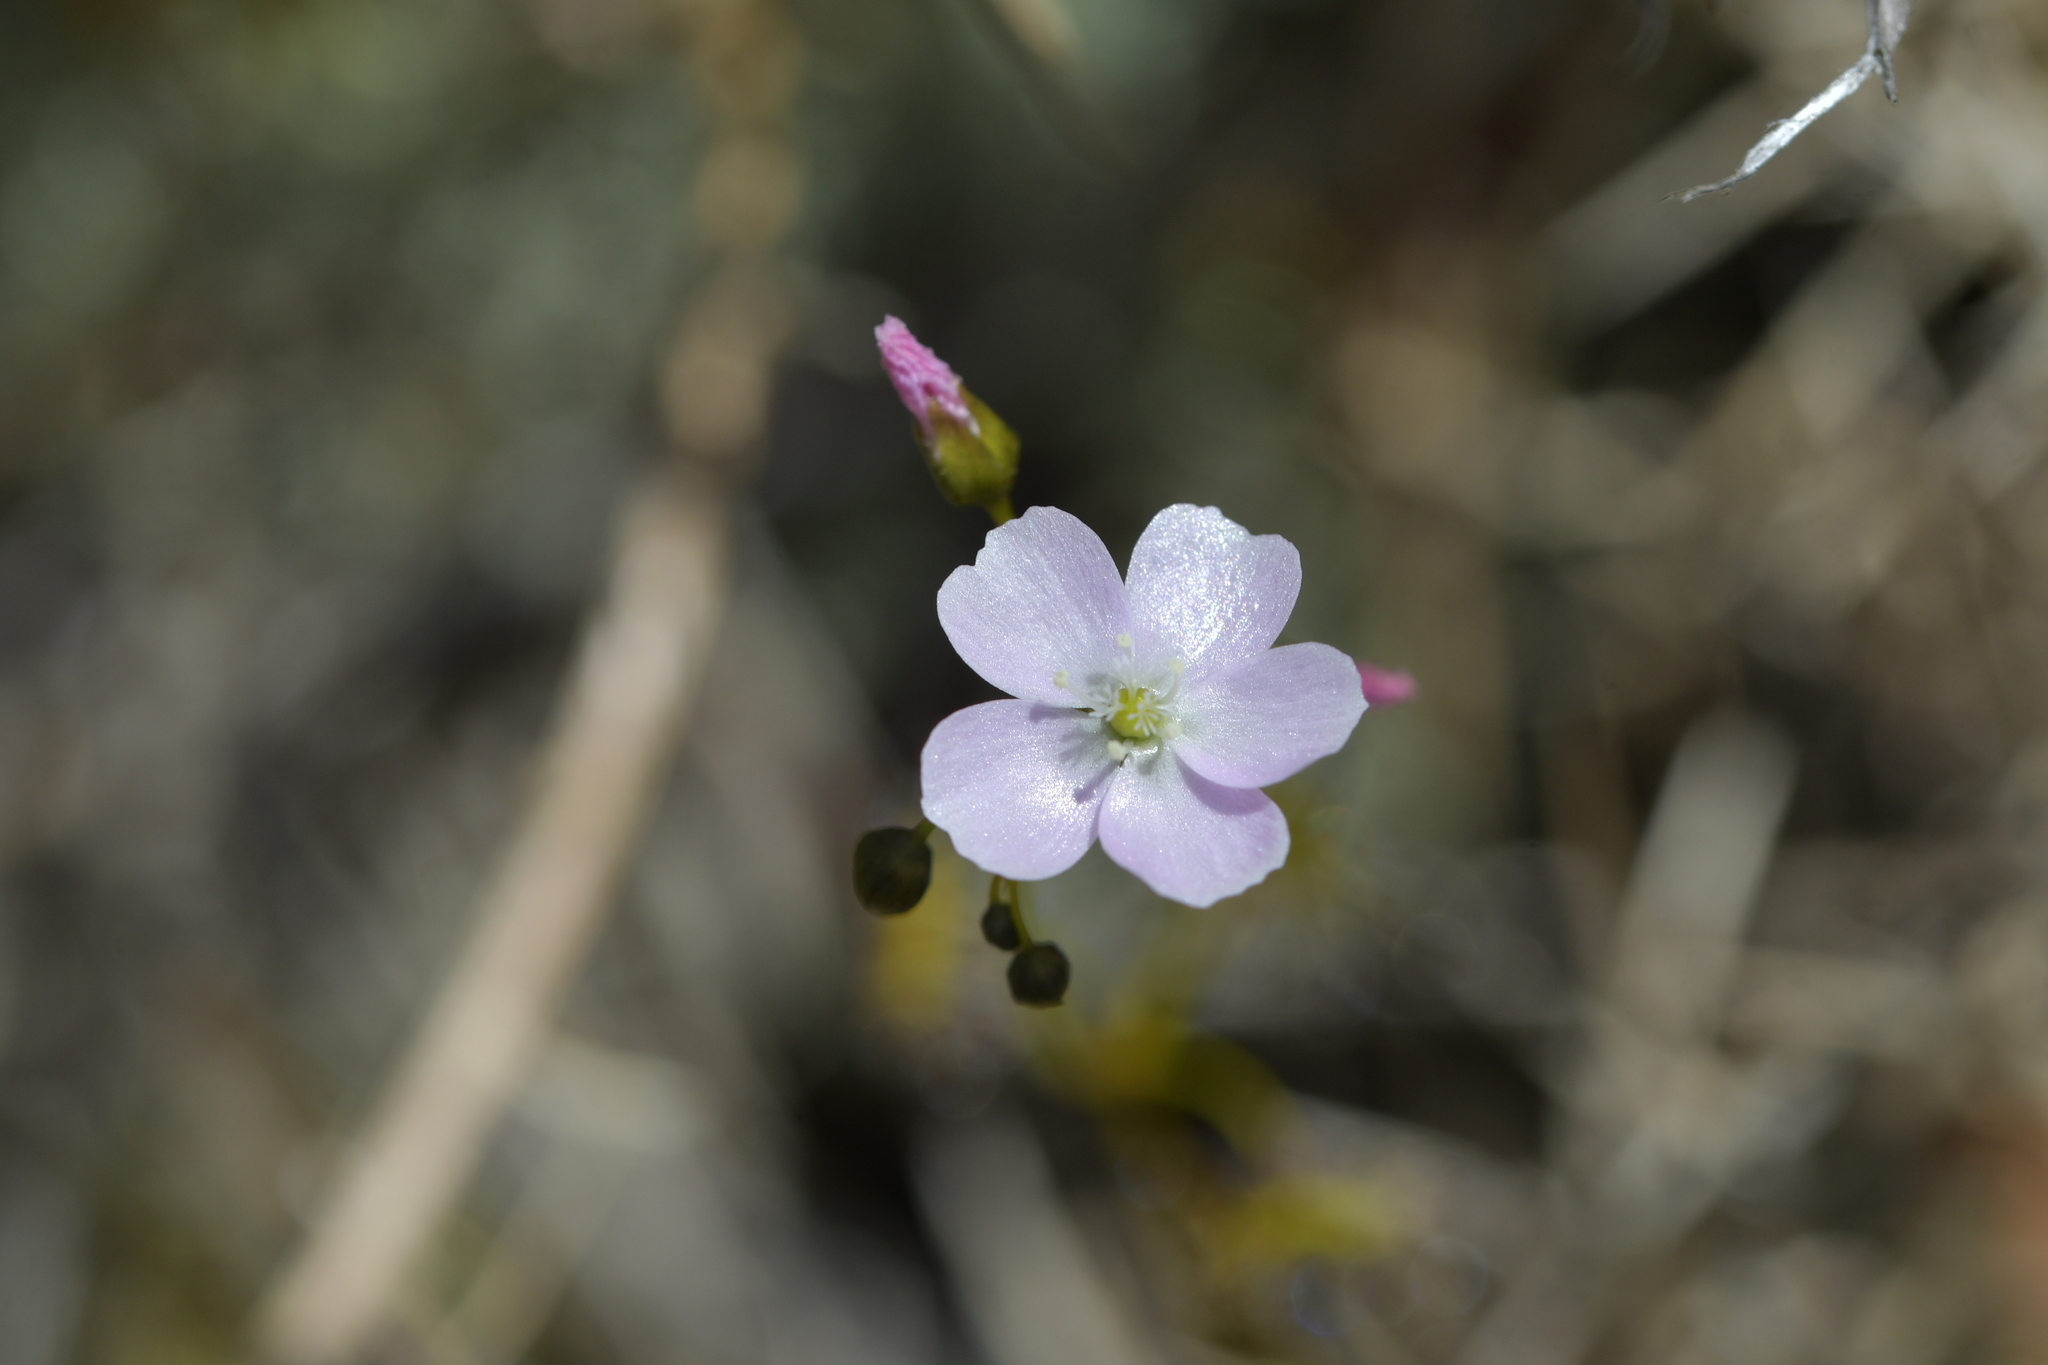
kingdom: Plantae
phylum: Tracheophyta
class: Magnoliopsida
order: Caryophyllales
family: Droseraceae
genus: Drosera
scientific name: Drosera peltata
